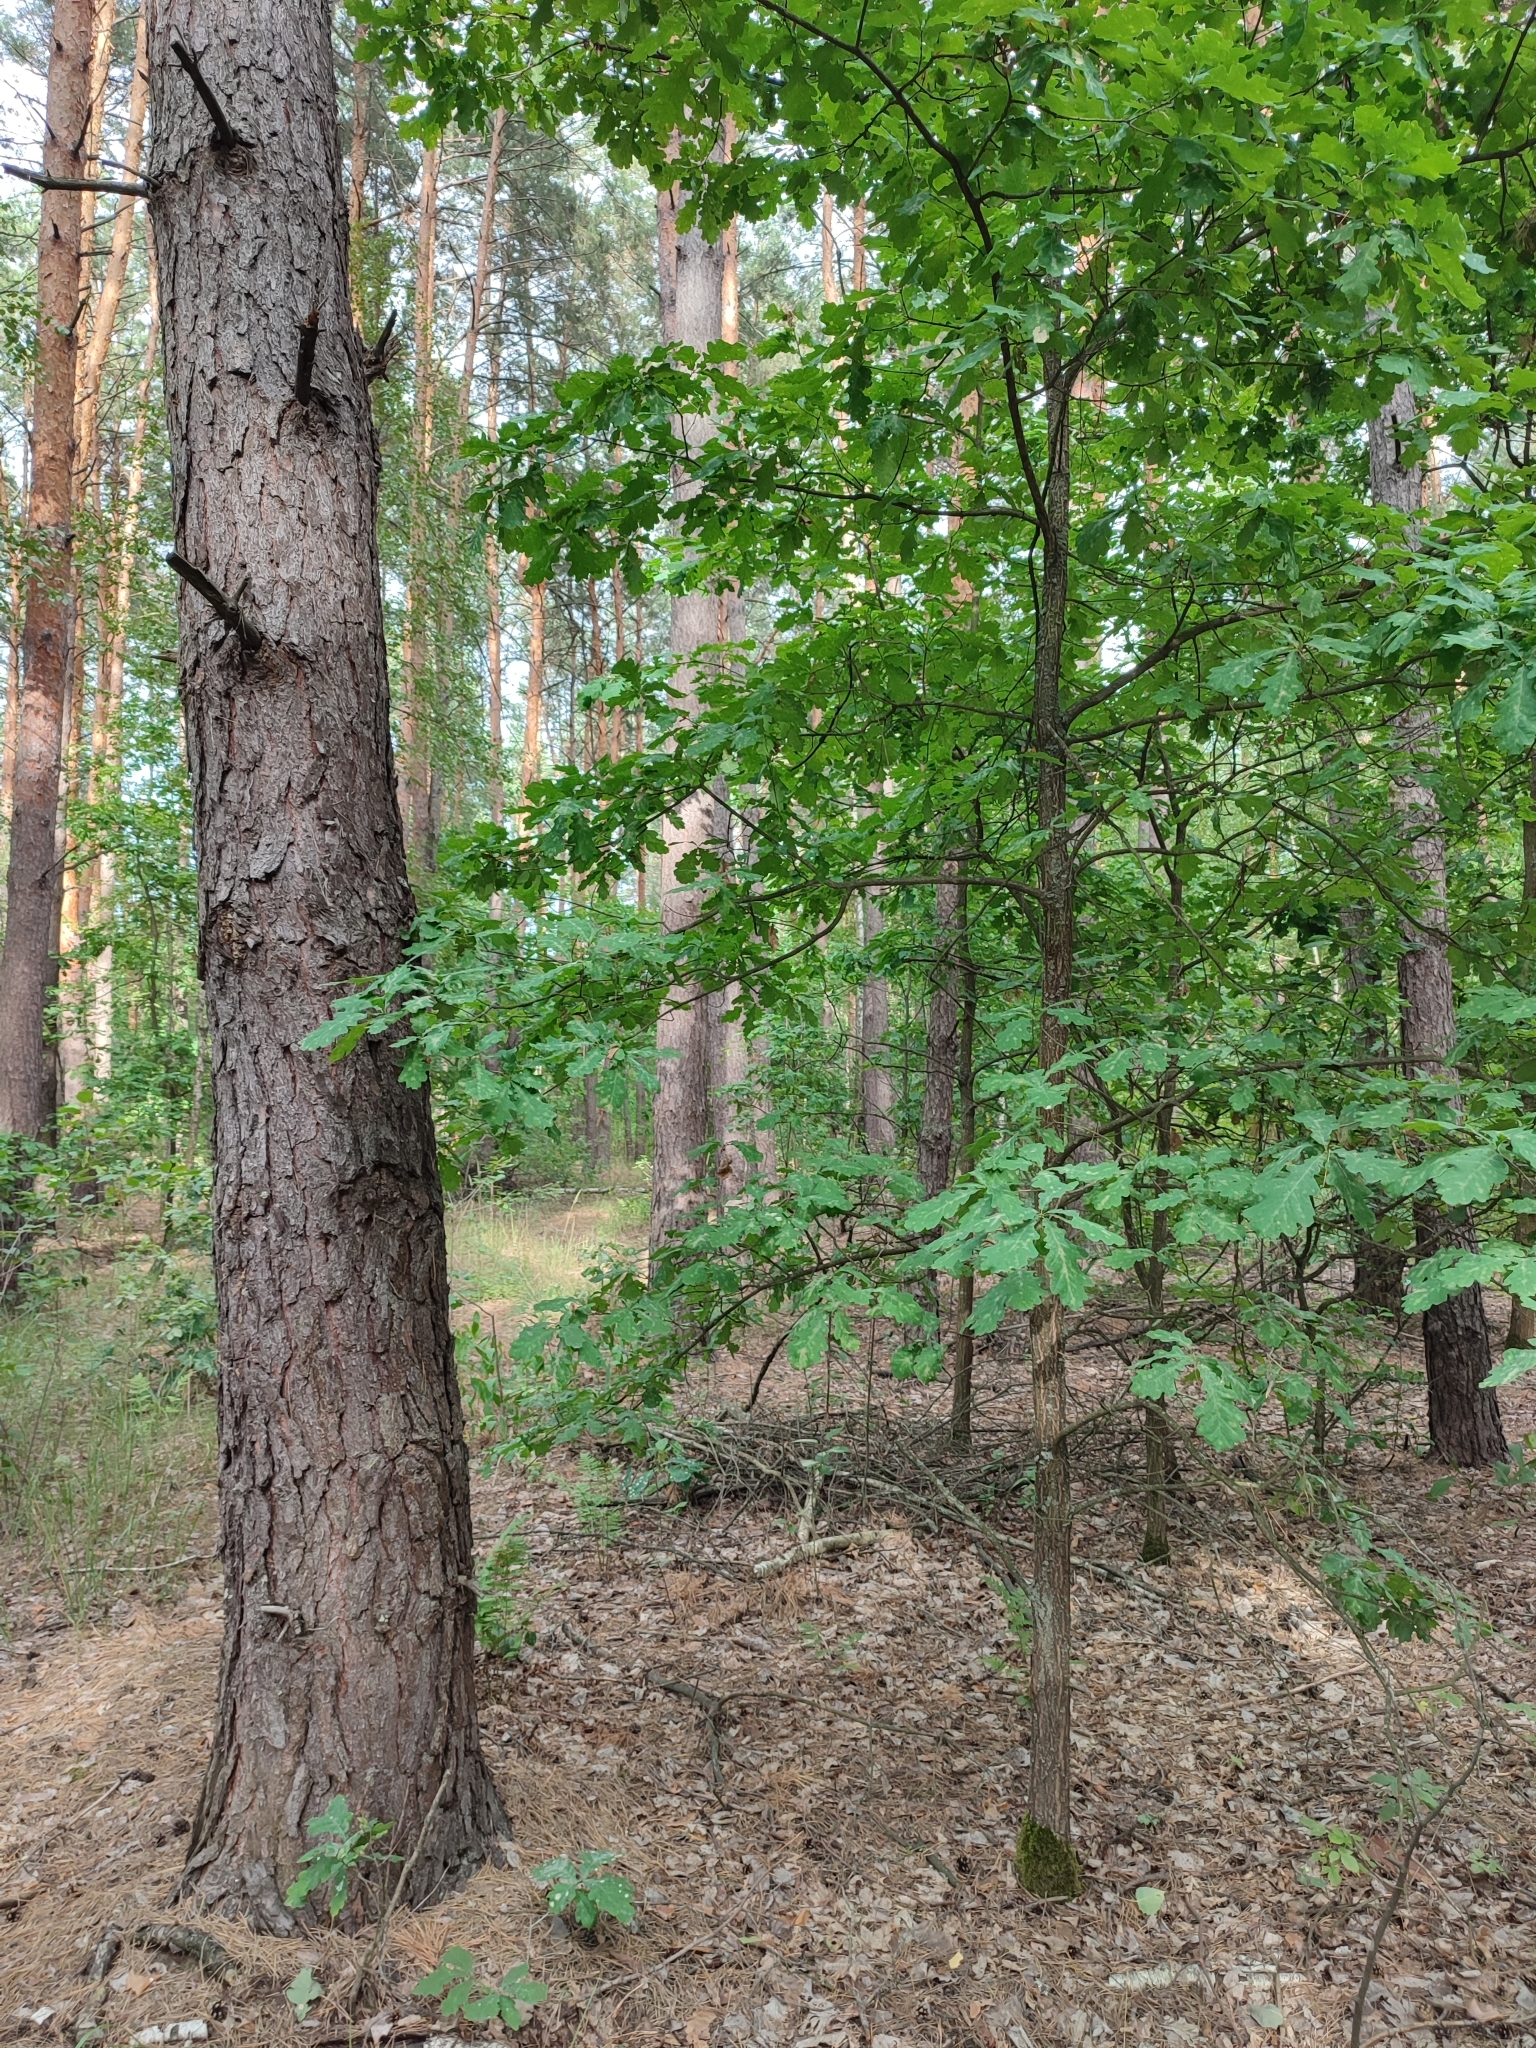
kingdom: Plantae
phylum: Tracheophyta
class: Magnoliopsida
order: Fagales
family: Fagaceae
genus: Quercus
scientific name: Quercus robur
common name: Pedunculate oak
